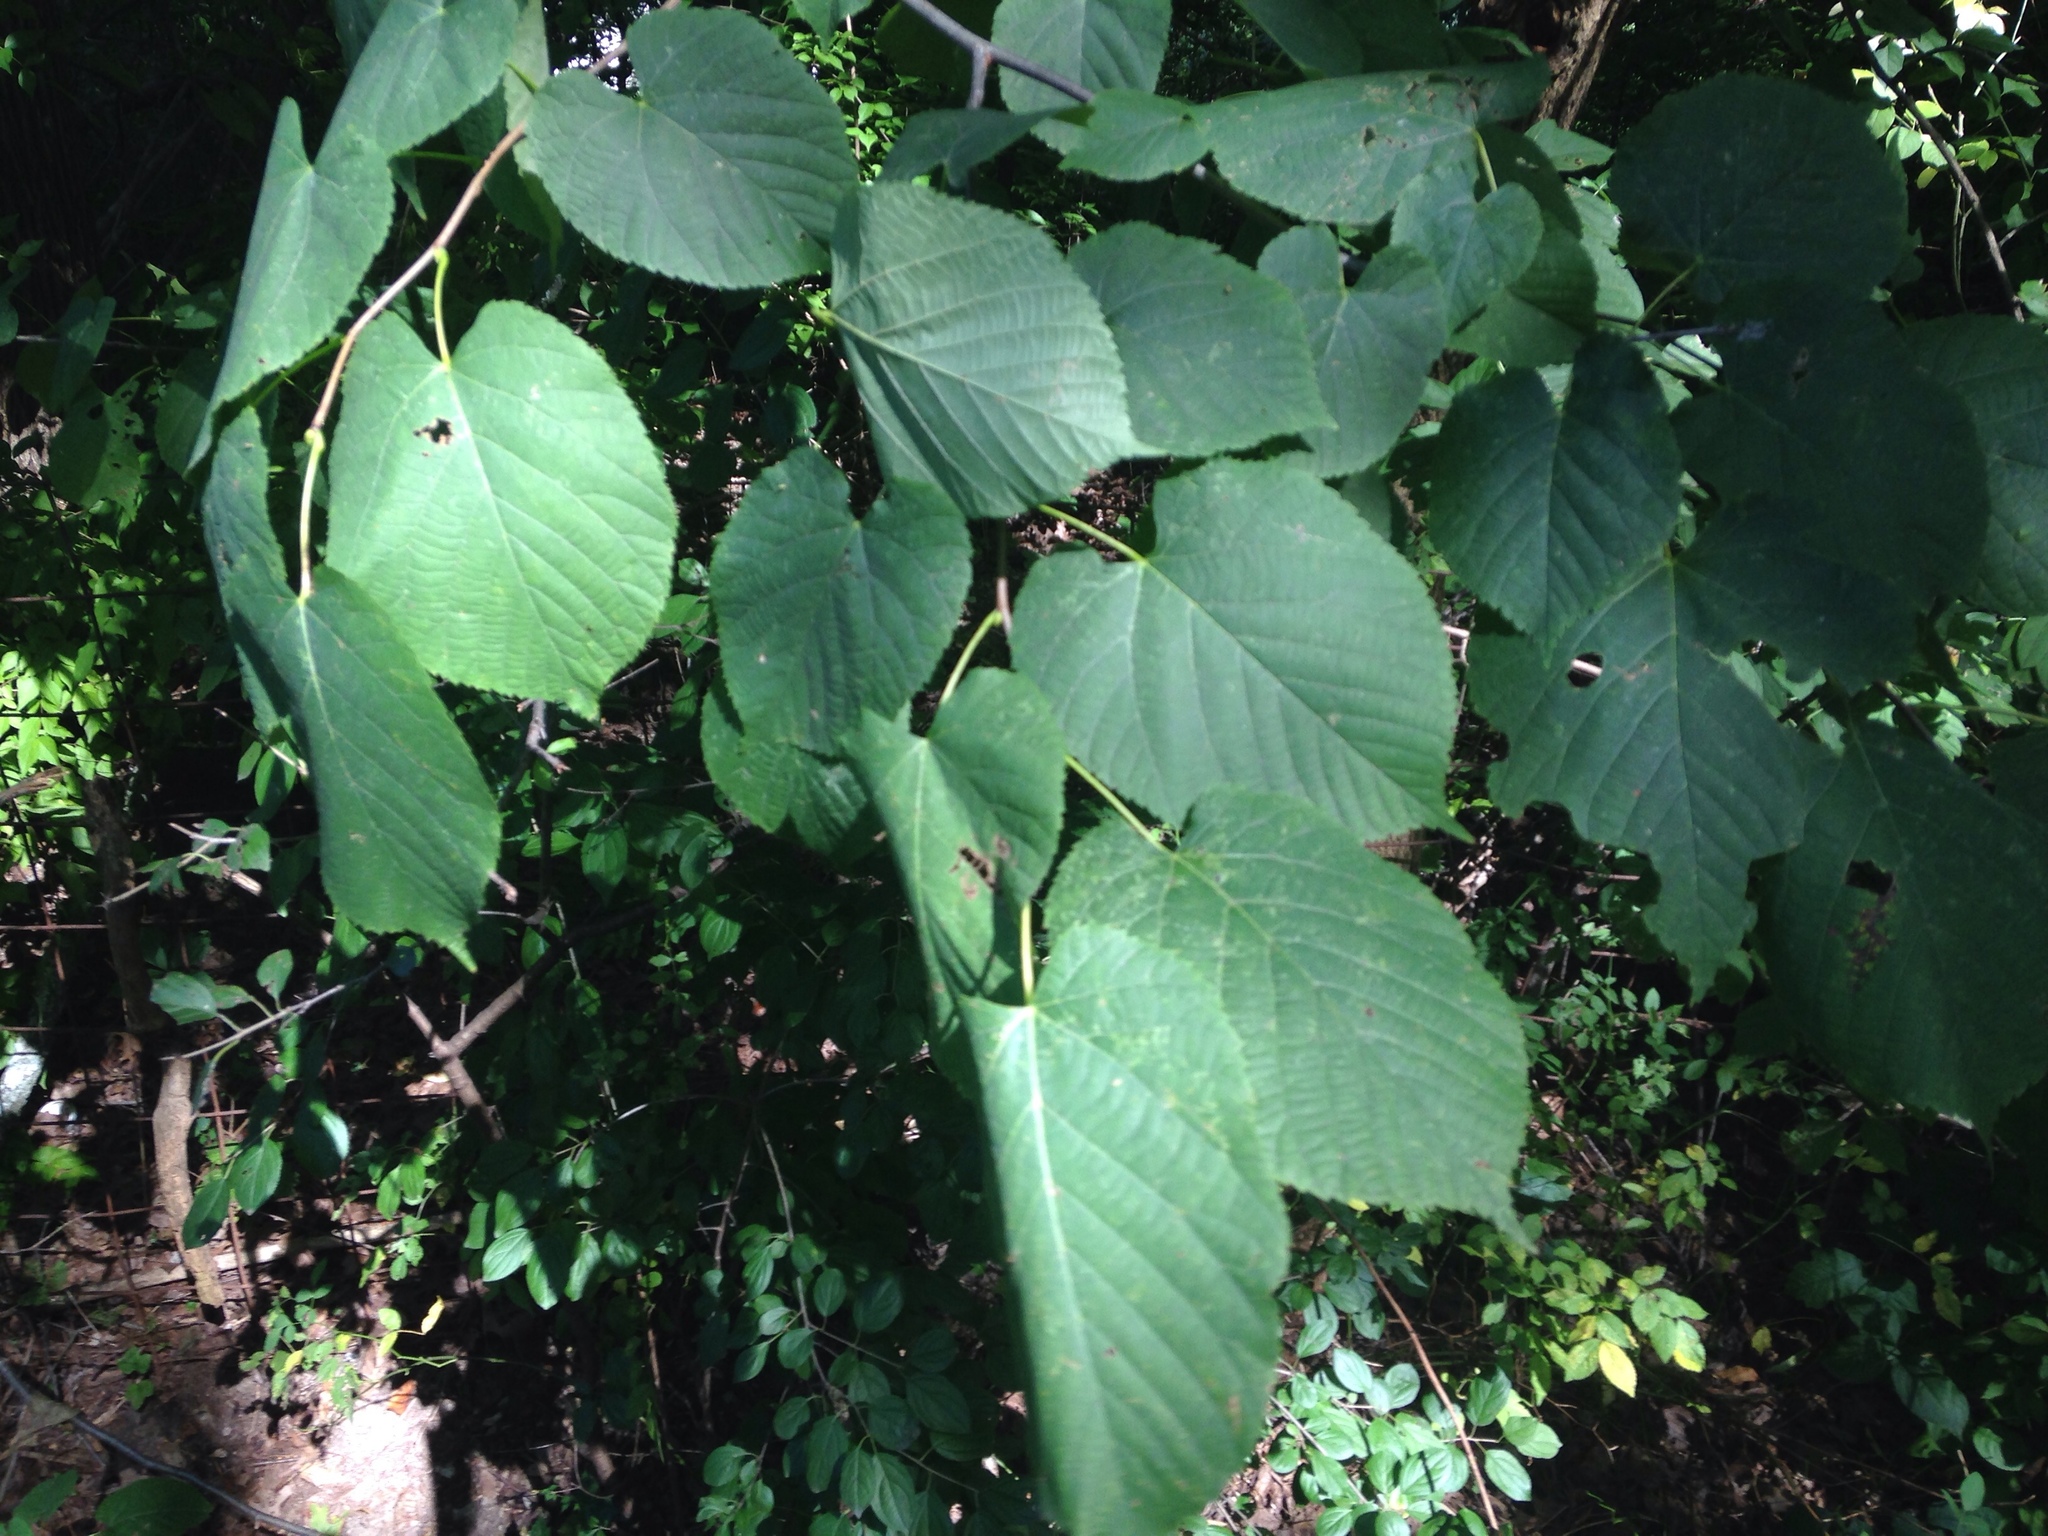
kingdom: Plantae
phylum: Tracheophyta
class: Magnoliopsida
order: Malvales
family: Malvaceae
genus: Tilia
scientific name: Tilia americana
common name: Basswood
